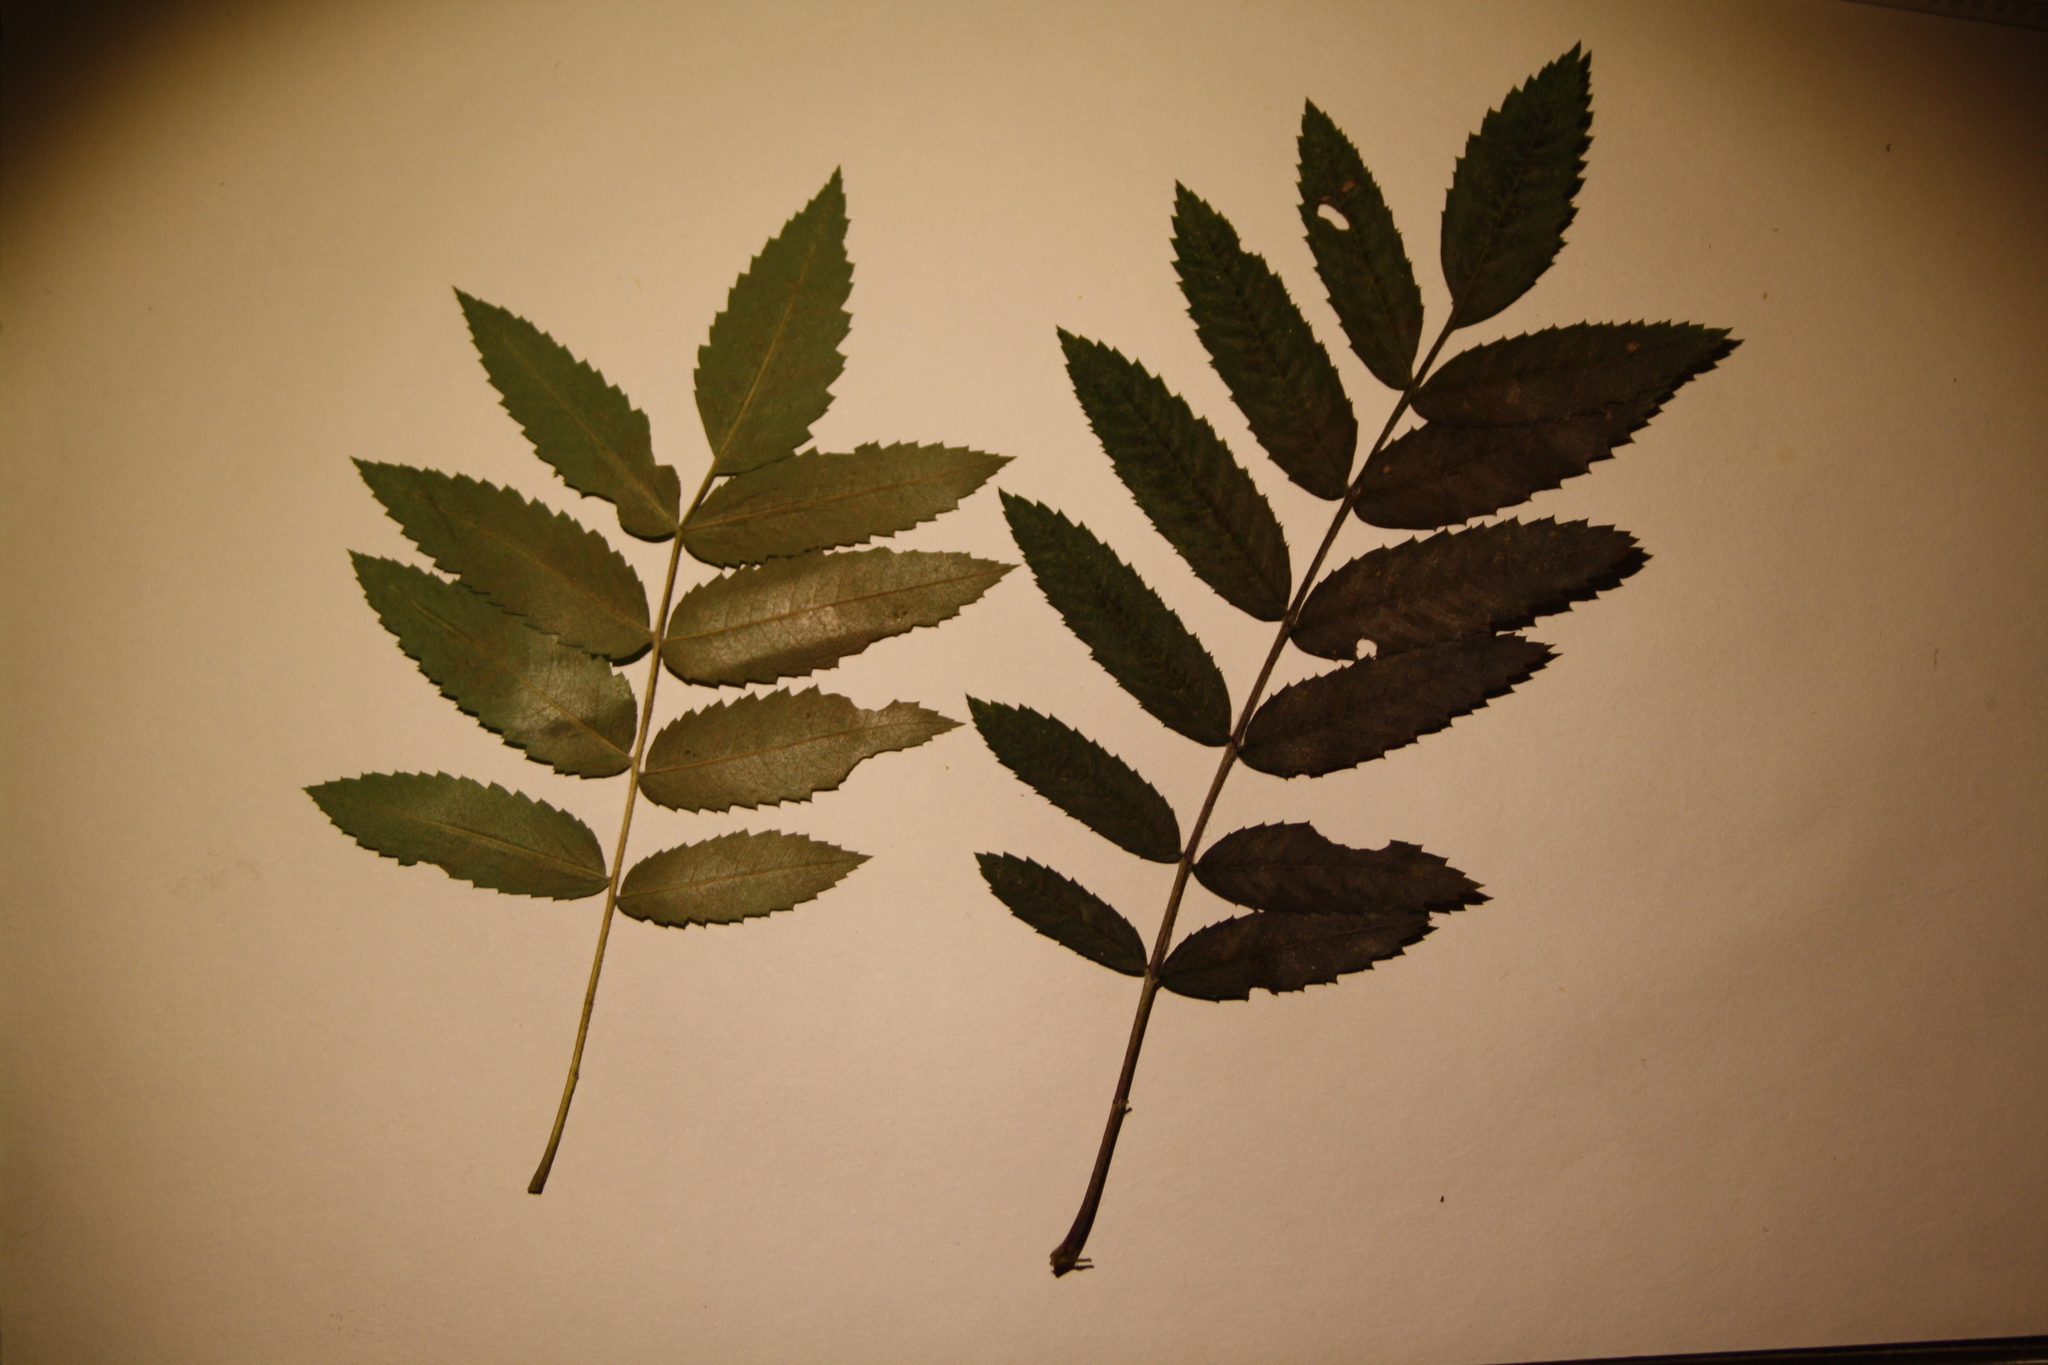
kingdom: Plantae
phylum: Tracheophyta
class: Magnoliopsida
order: Rosales
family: Rosaceae
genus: Sorbus
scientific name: Sorbus americana
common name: American mountain-ash
